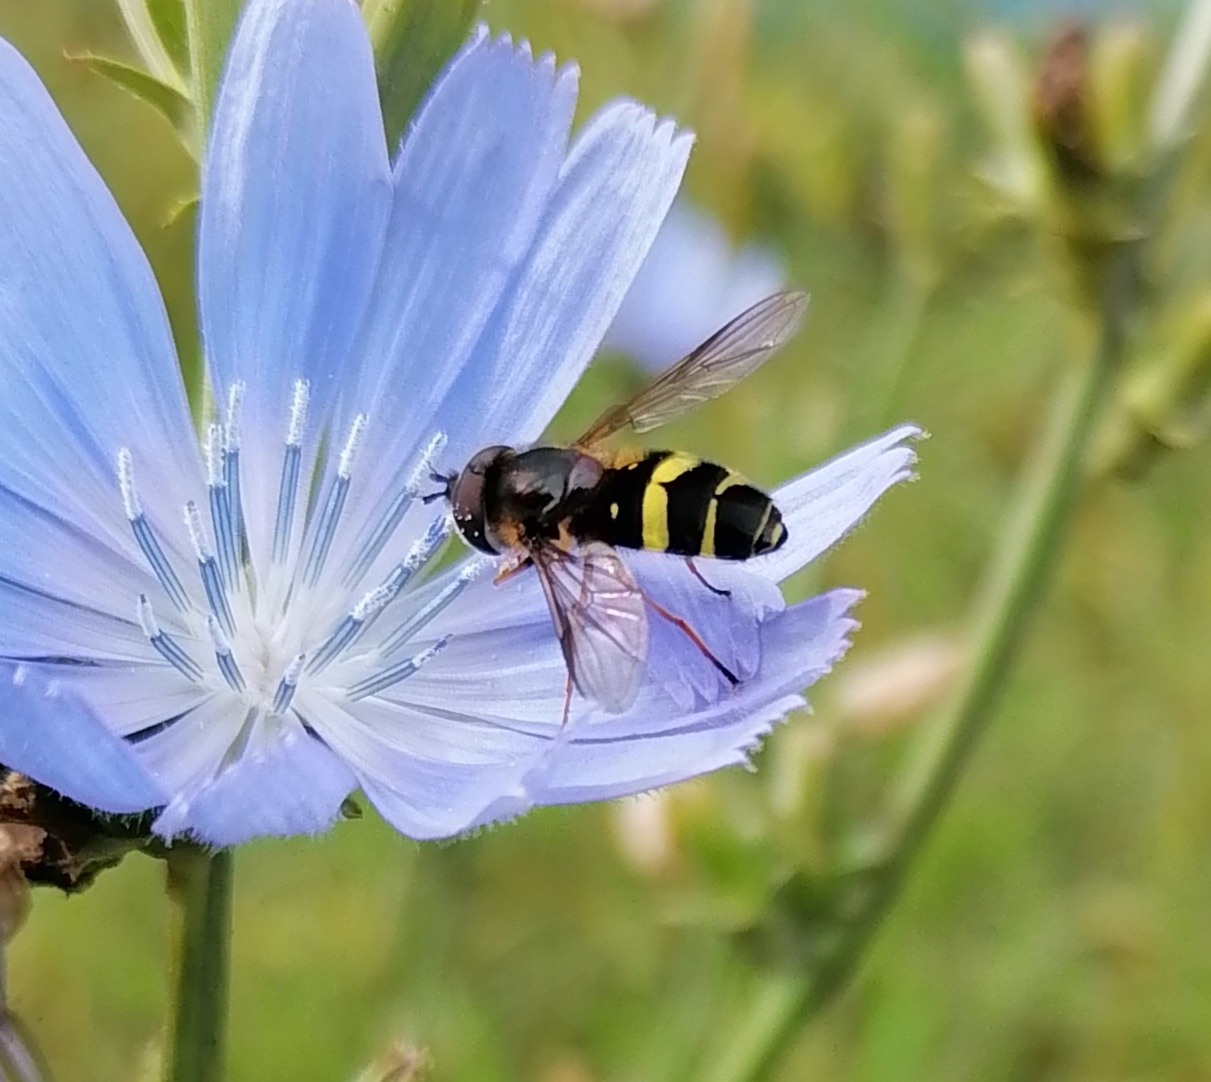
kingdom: Animalia
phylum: Arthropoda
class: Insecta
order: Diptera
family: Syrphidae
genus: Dasysyrphus
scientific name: Dasysyrphus tricinctus
